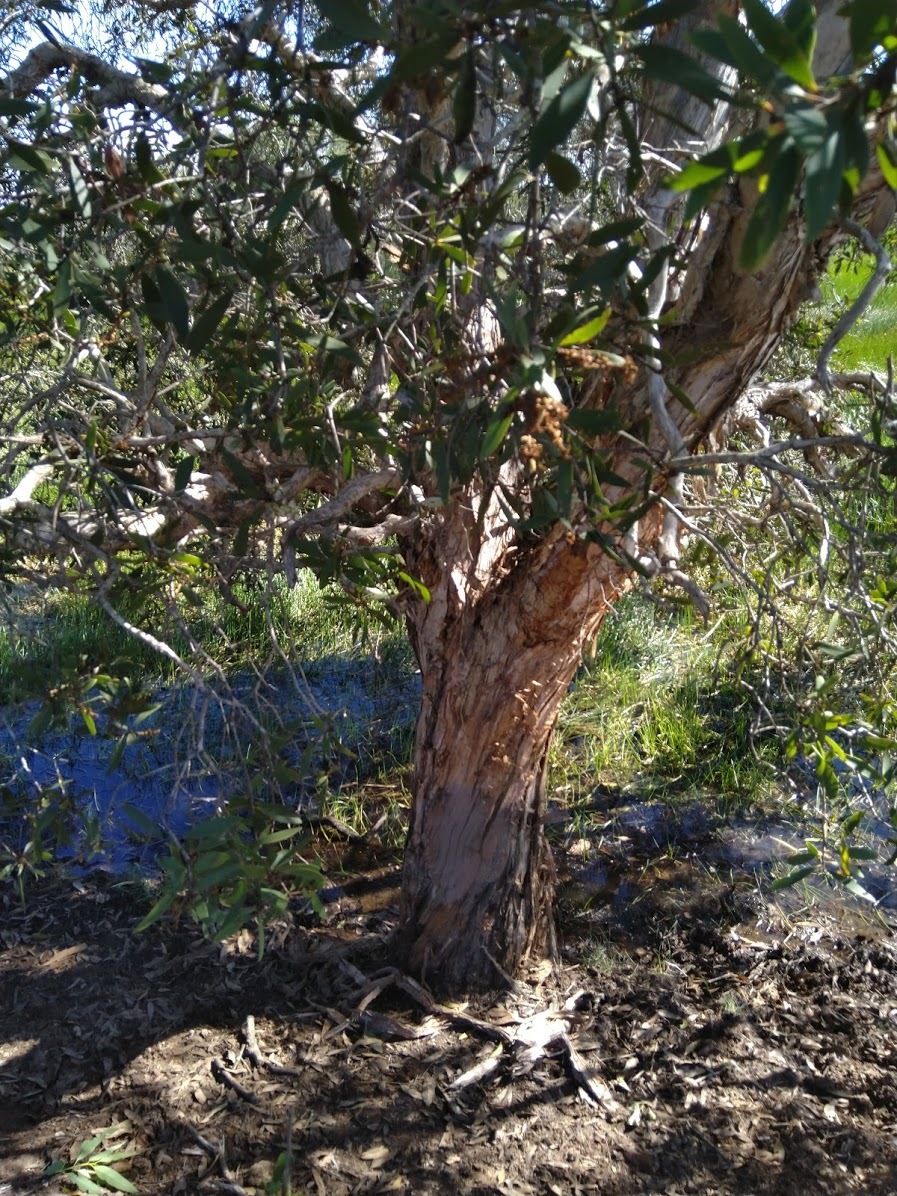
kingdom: Plantae
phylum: Tracheophyta
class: Magnoliopsida
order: Myrtales
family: Myrtaceae
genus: Melaleuca
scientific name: Melaleuca quinquenervia
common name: Punktree
